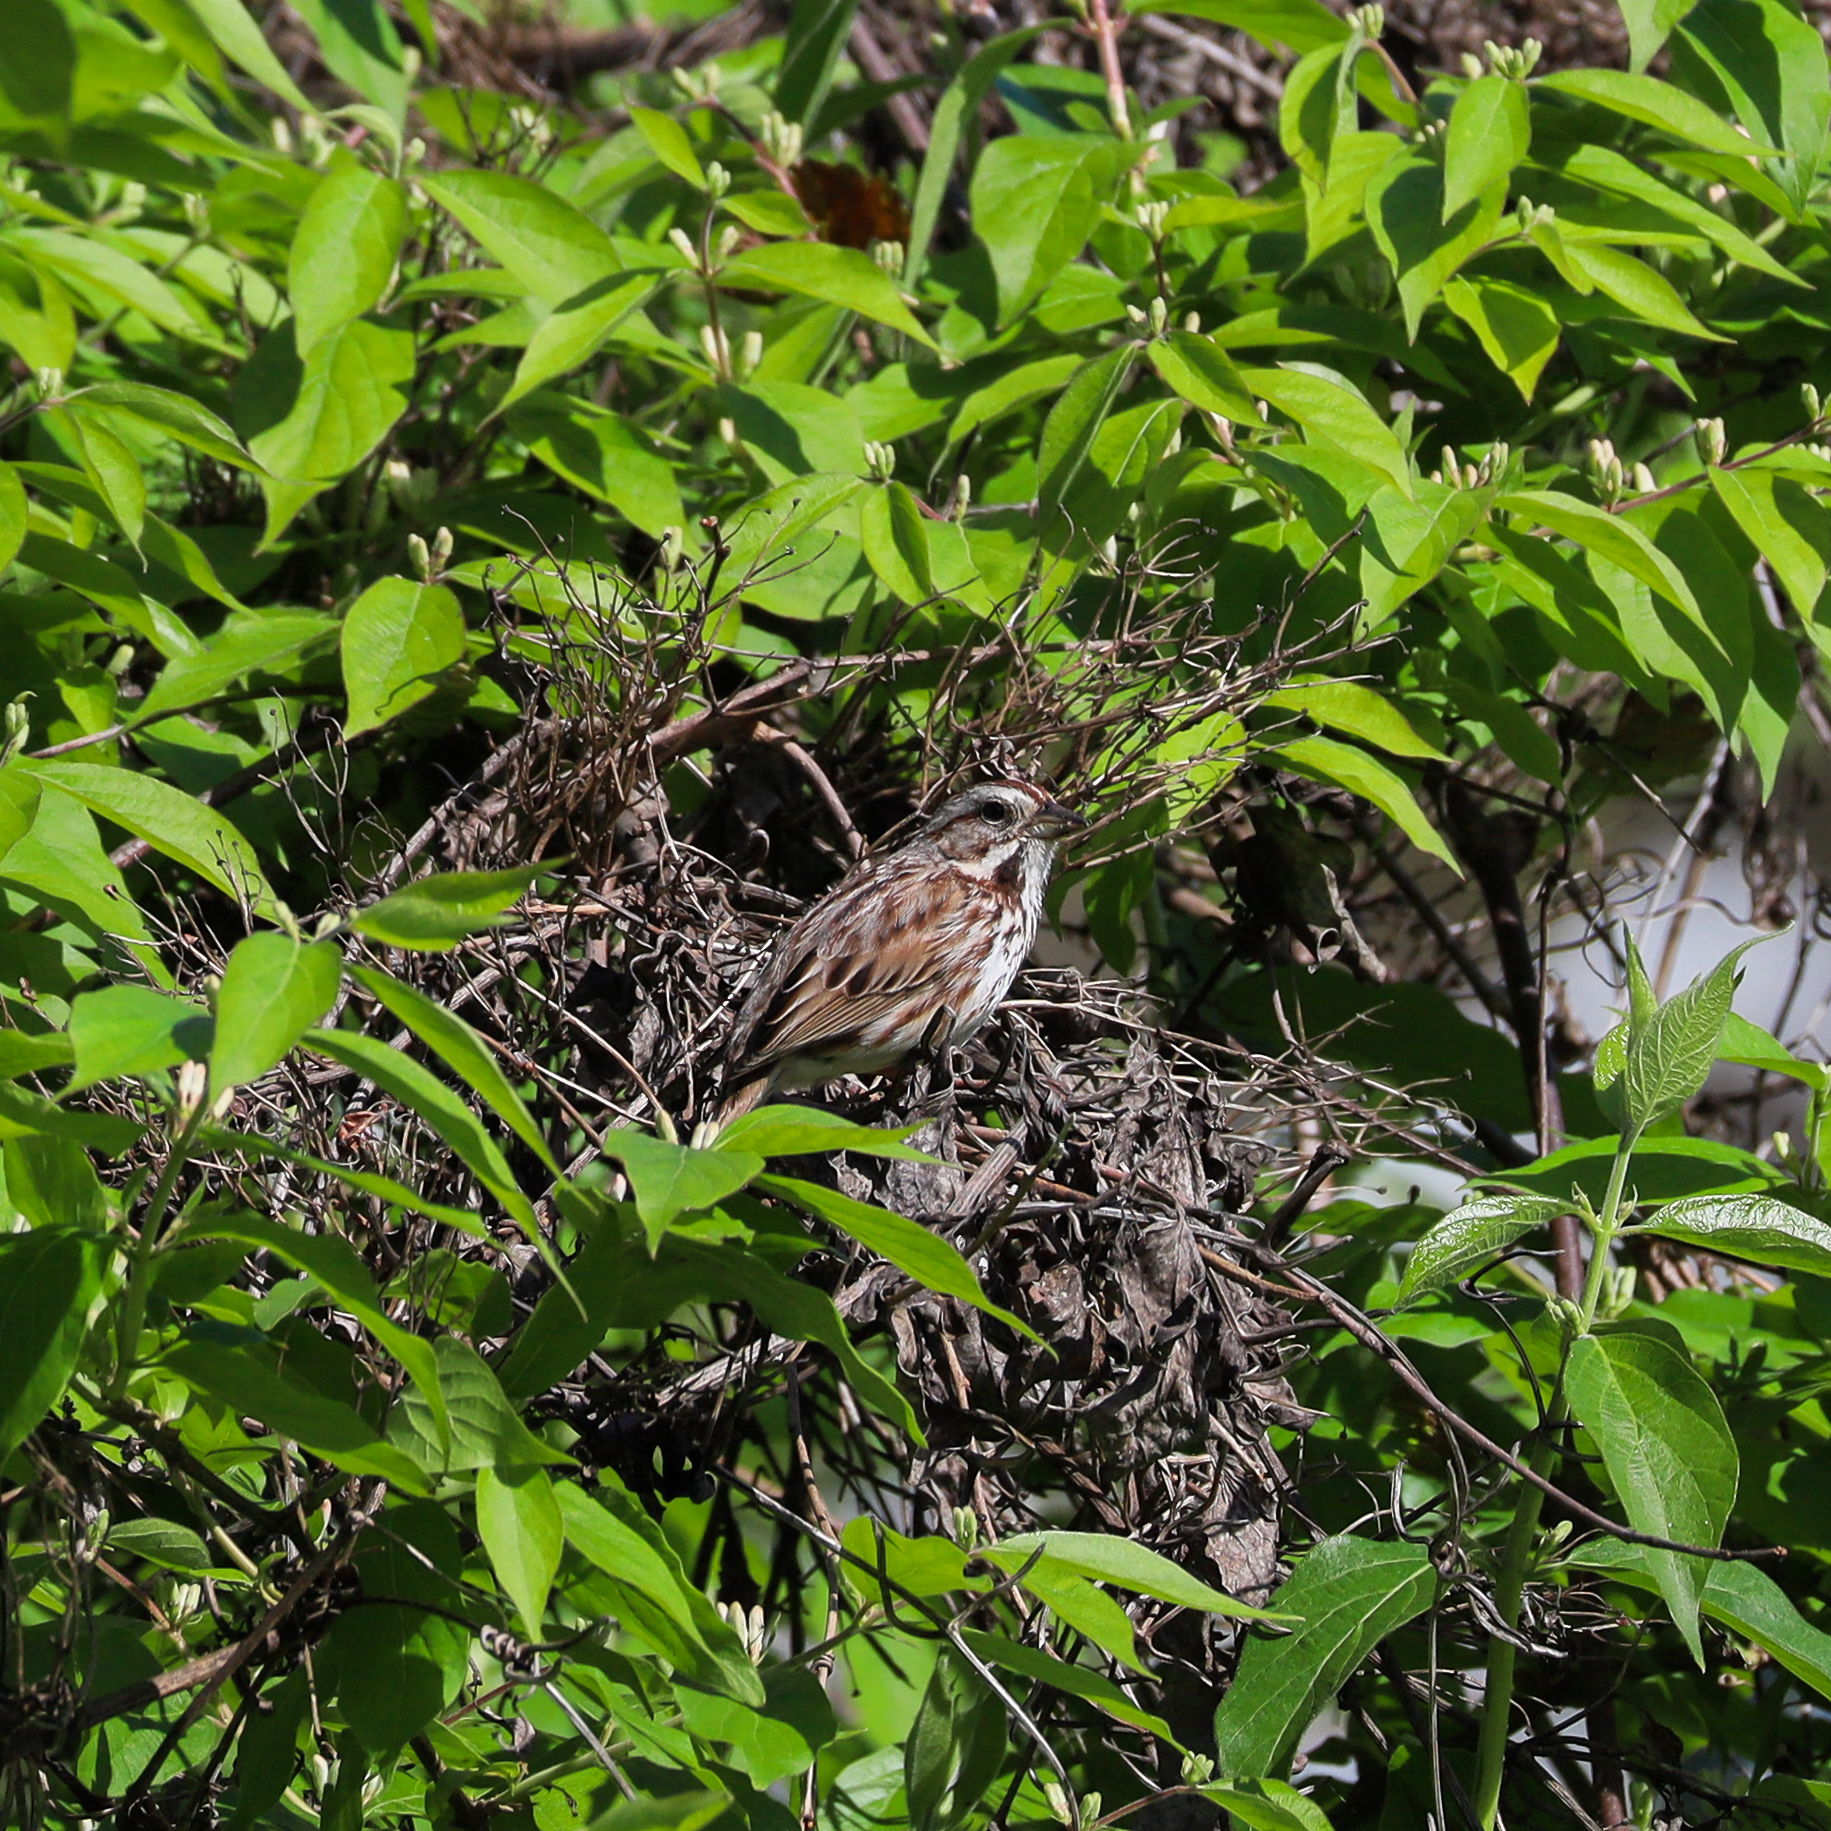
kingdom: Animalia
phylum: Chordata
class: Aves
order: Passeriformes
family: Passerellidae
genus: Melospiza
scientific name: Melospiza melodia
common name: Song sparrow
